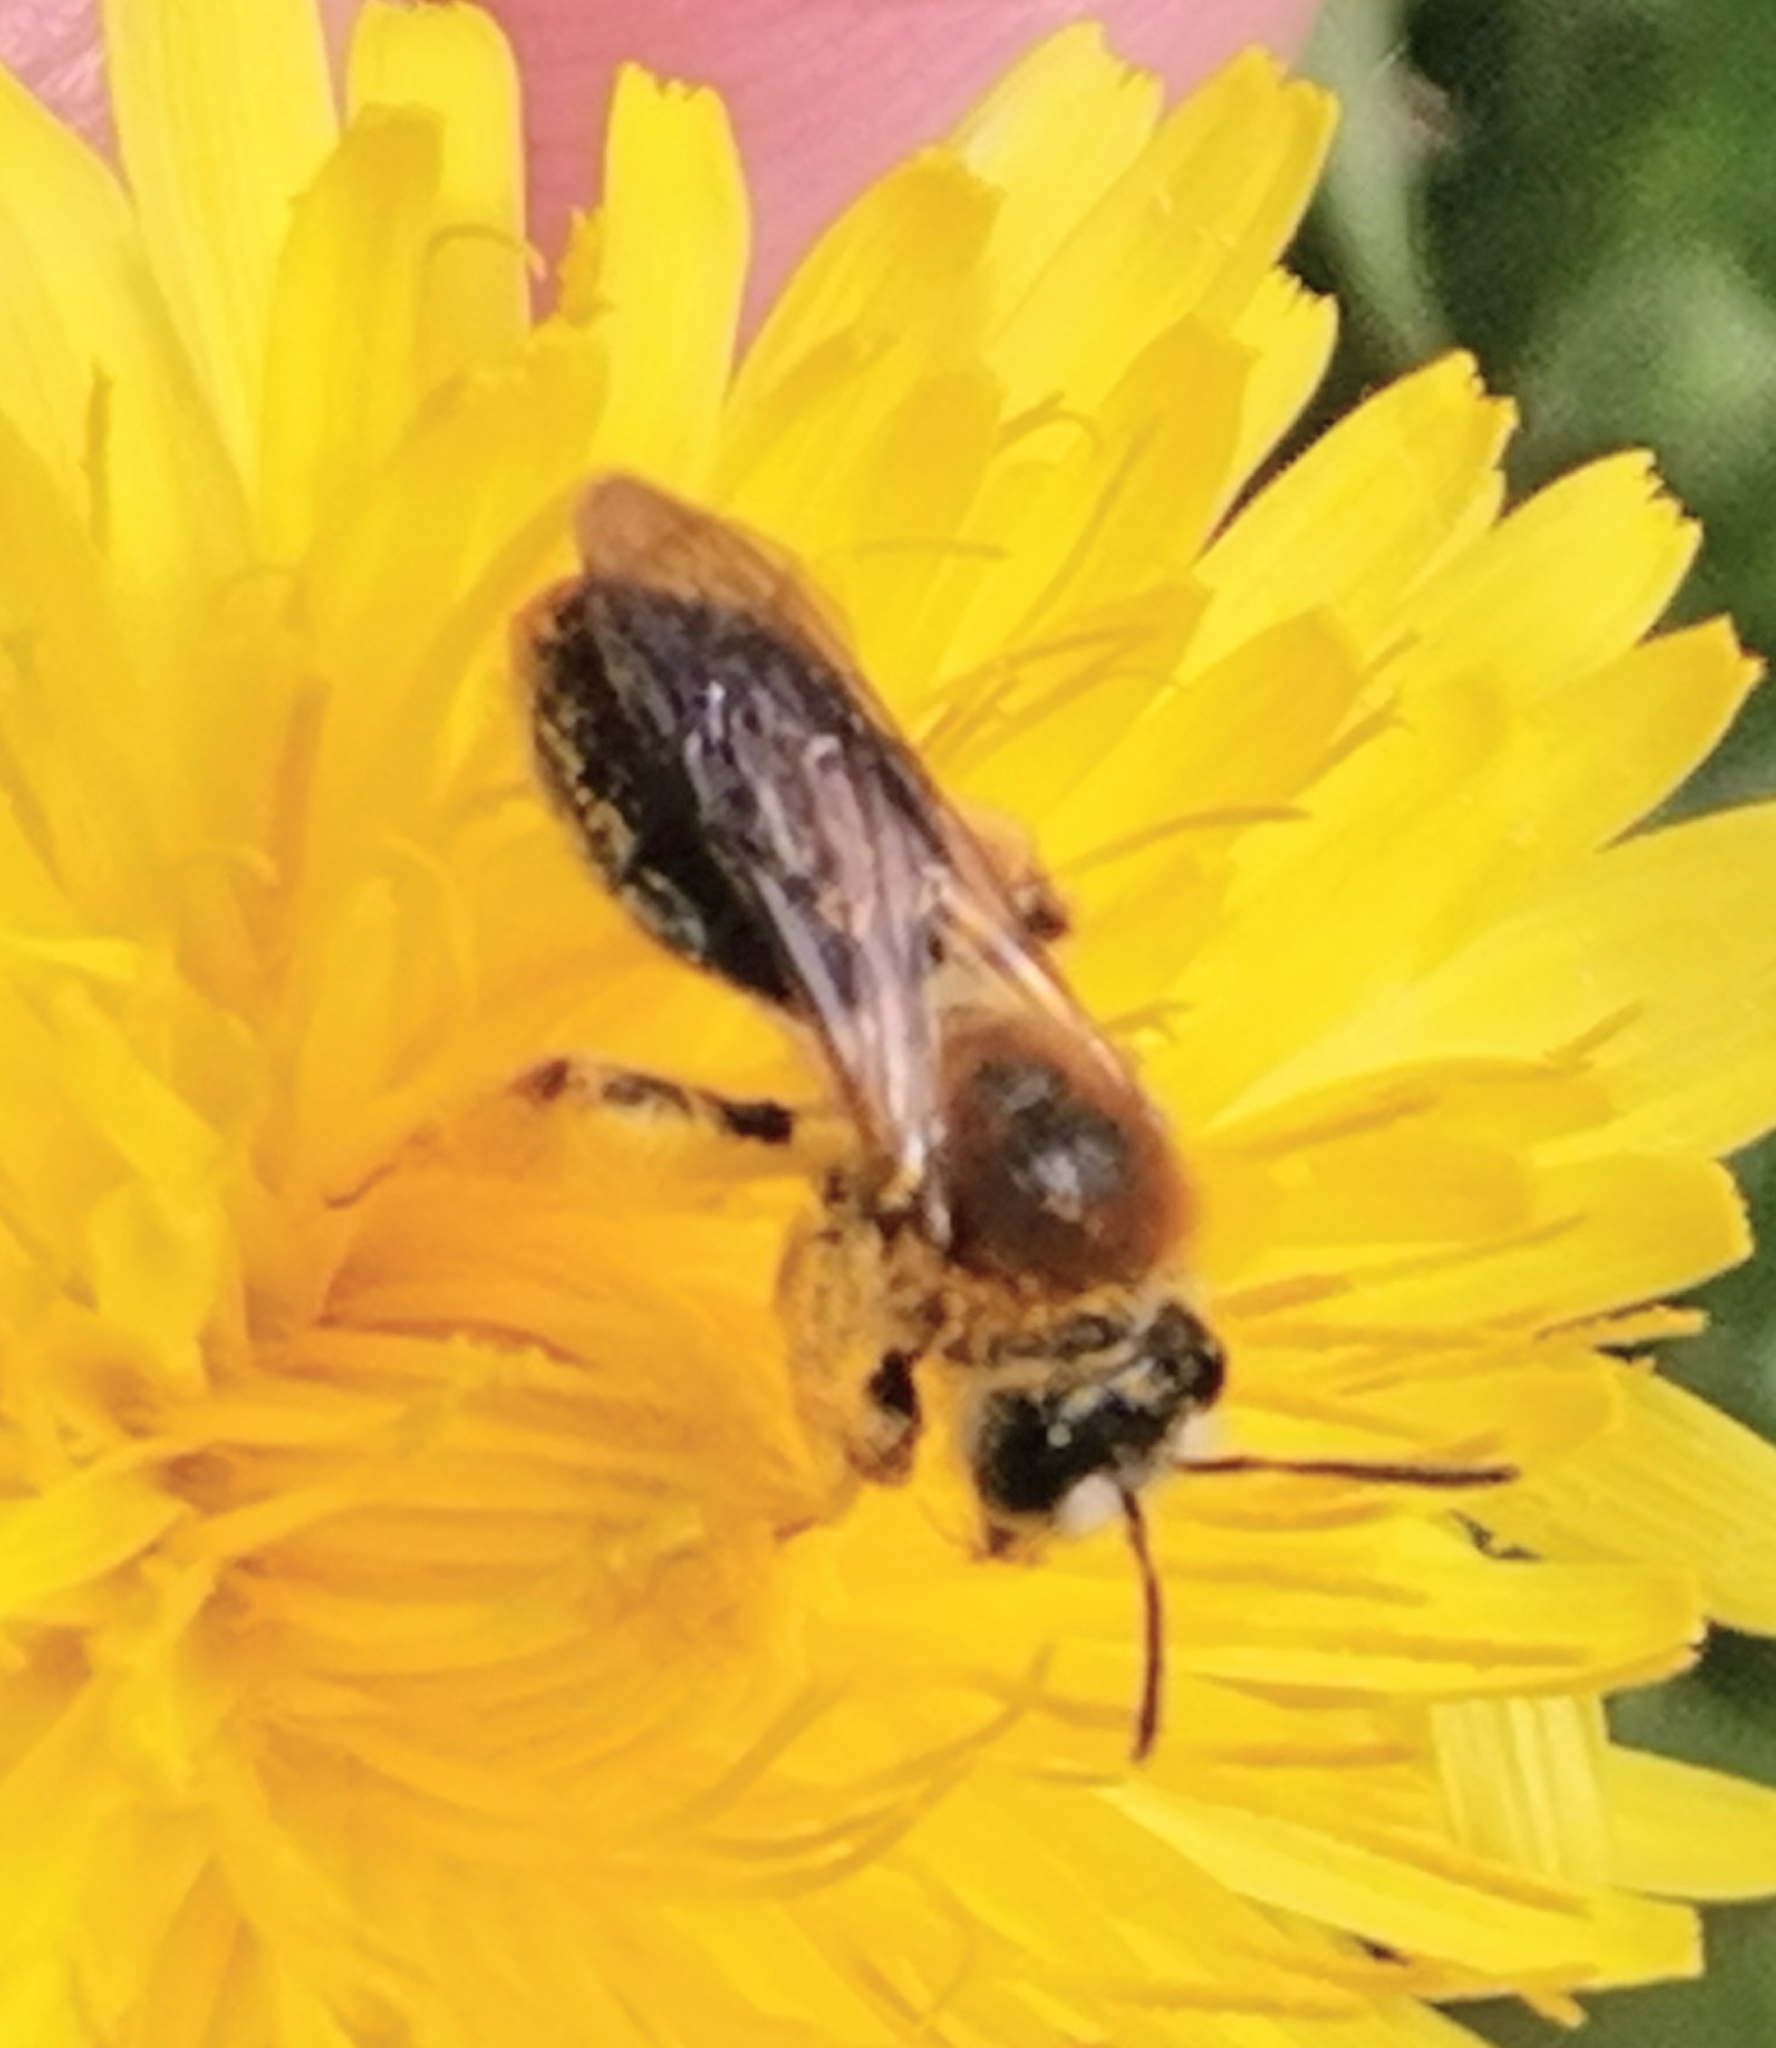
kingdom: Animalia
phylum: Arthropoda
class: Insecta
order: Hymenoptera
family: Andrenidae
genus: Andrena
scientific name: Andrena haemorrhoa
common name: Early mining bee
